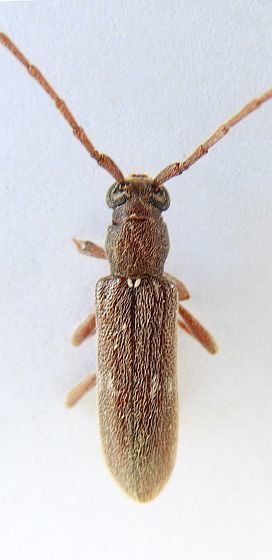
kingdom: Animalia
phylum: Arthropoda
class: Insecta
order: Coleoptera
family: Cerambycidae
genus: Anelaphus
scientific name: Anelaphus simile
